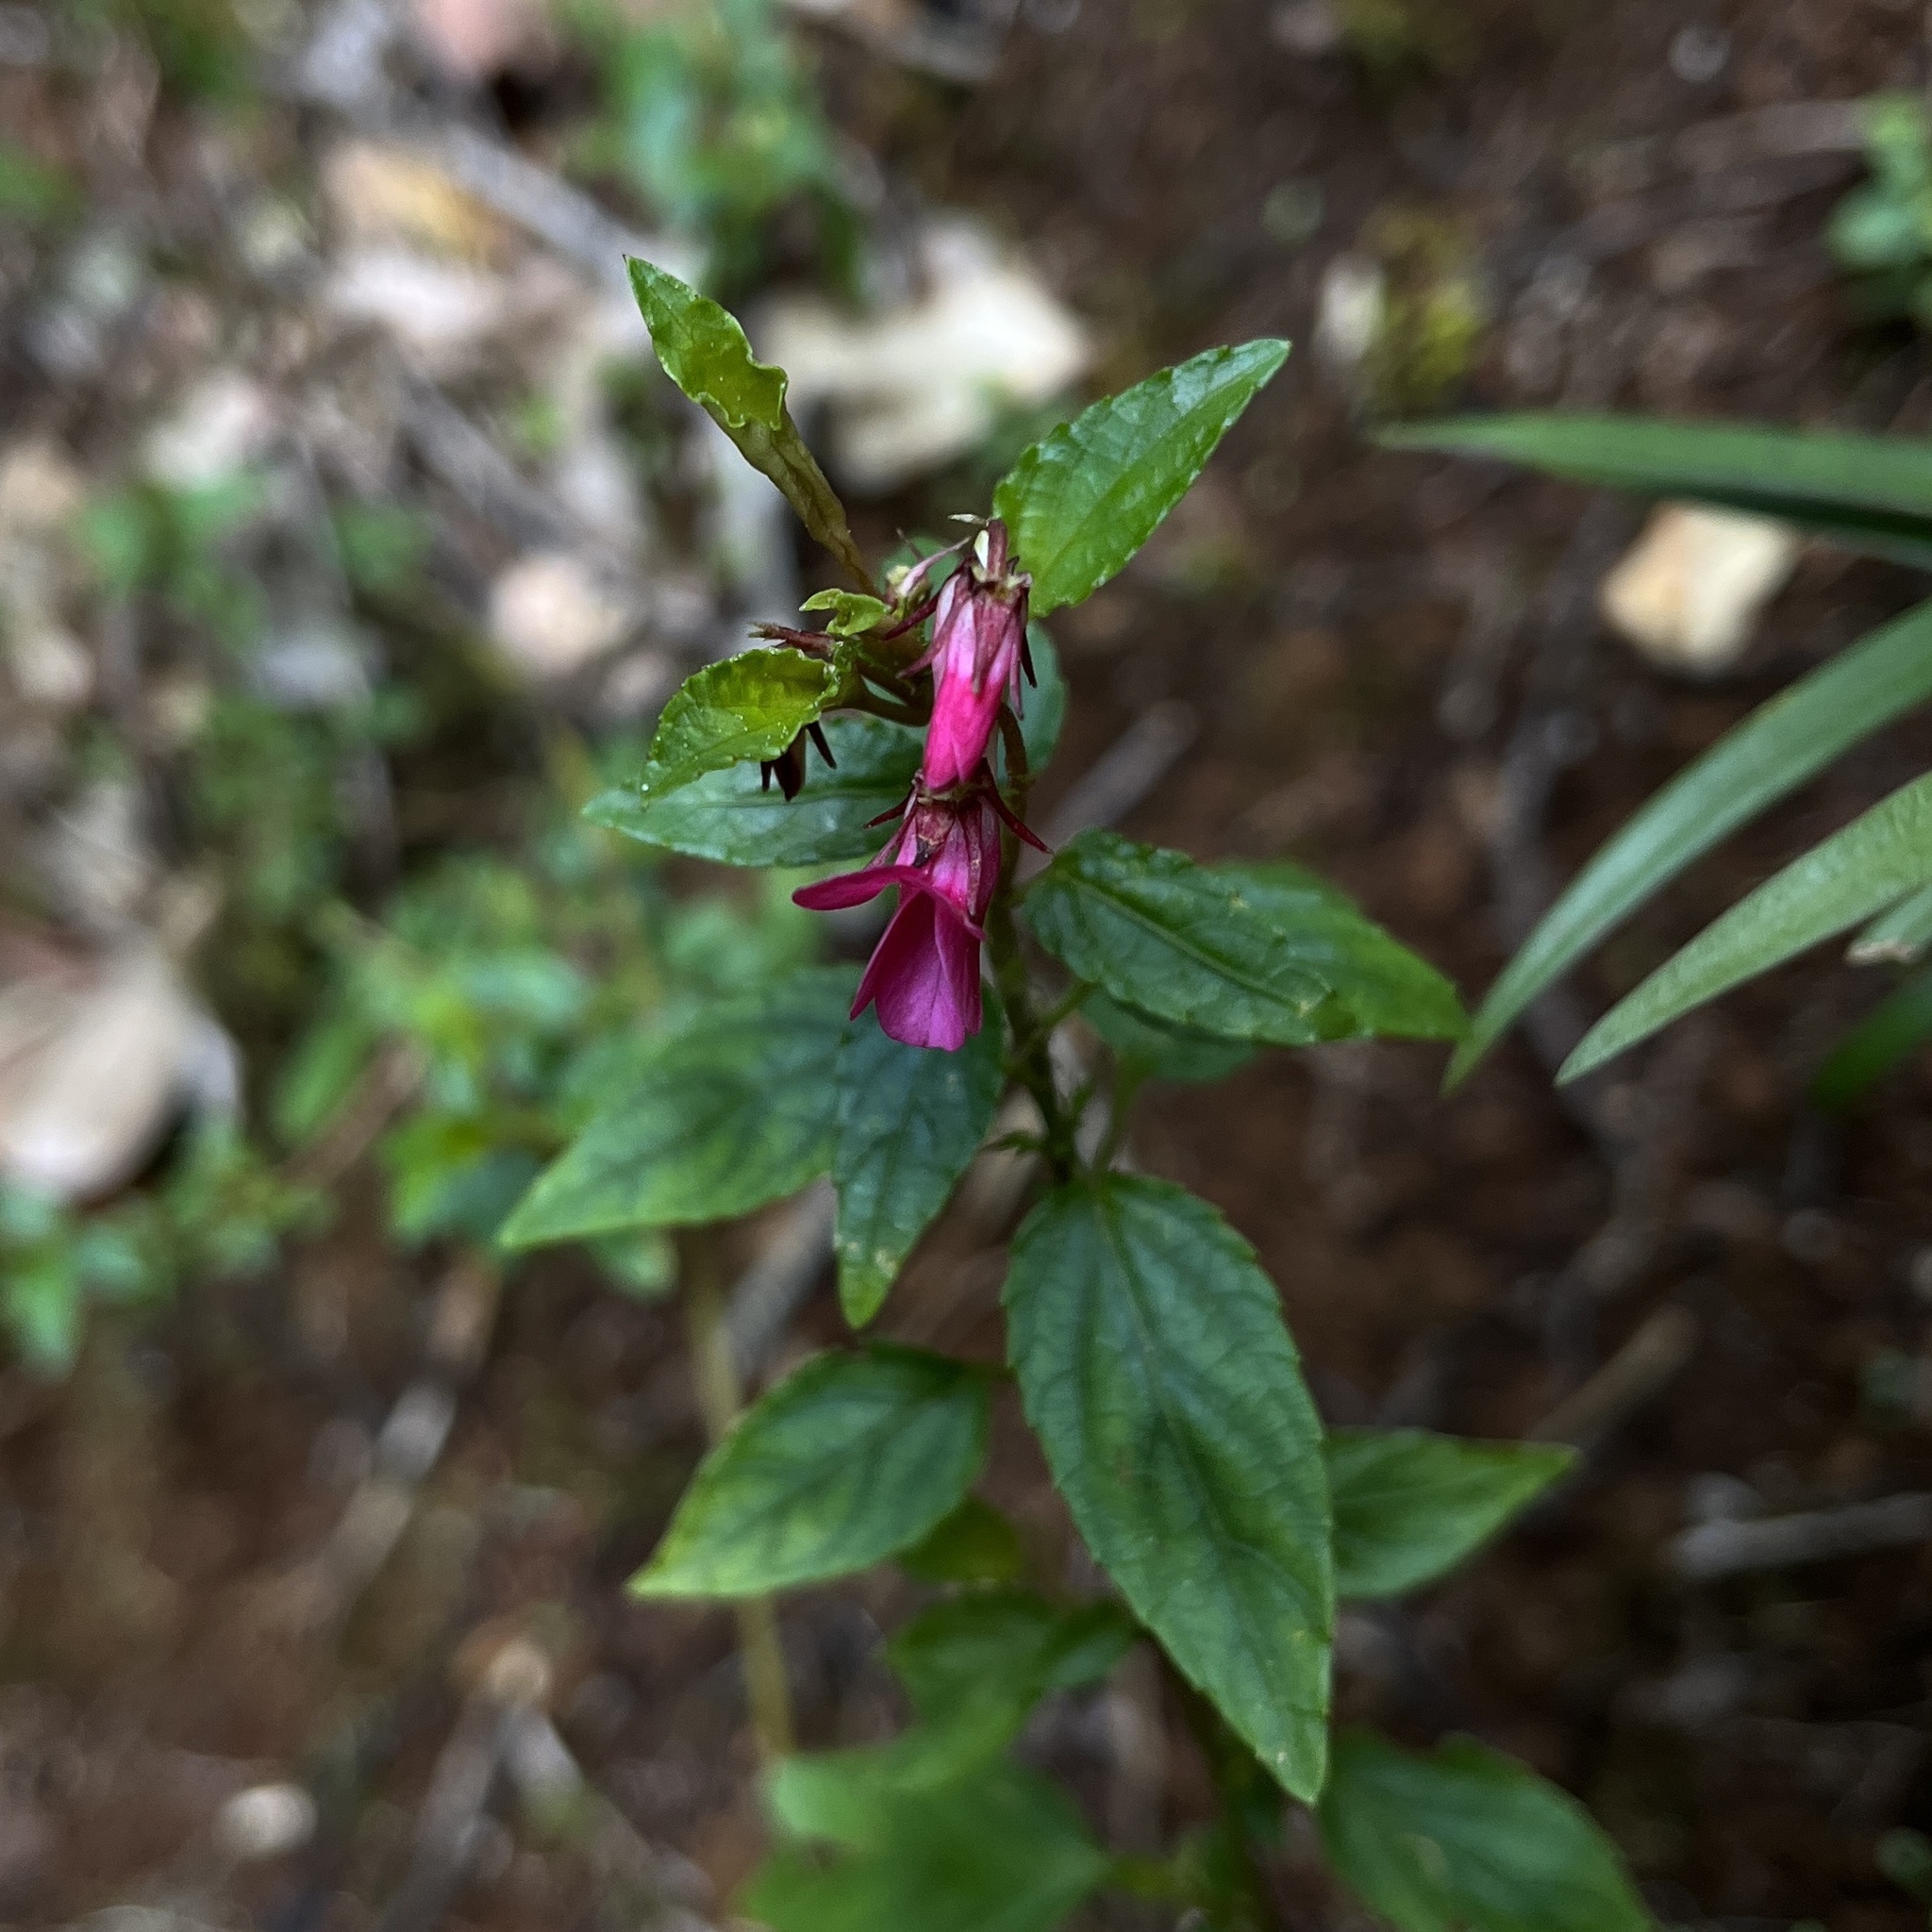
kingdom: Plantae
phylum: Tracheophyta
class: Magnoliopsida
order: Malpighiales
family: Violaceae
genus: Viola
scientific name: Viola rubella
